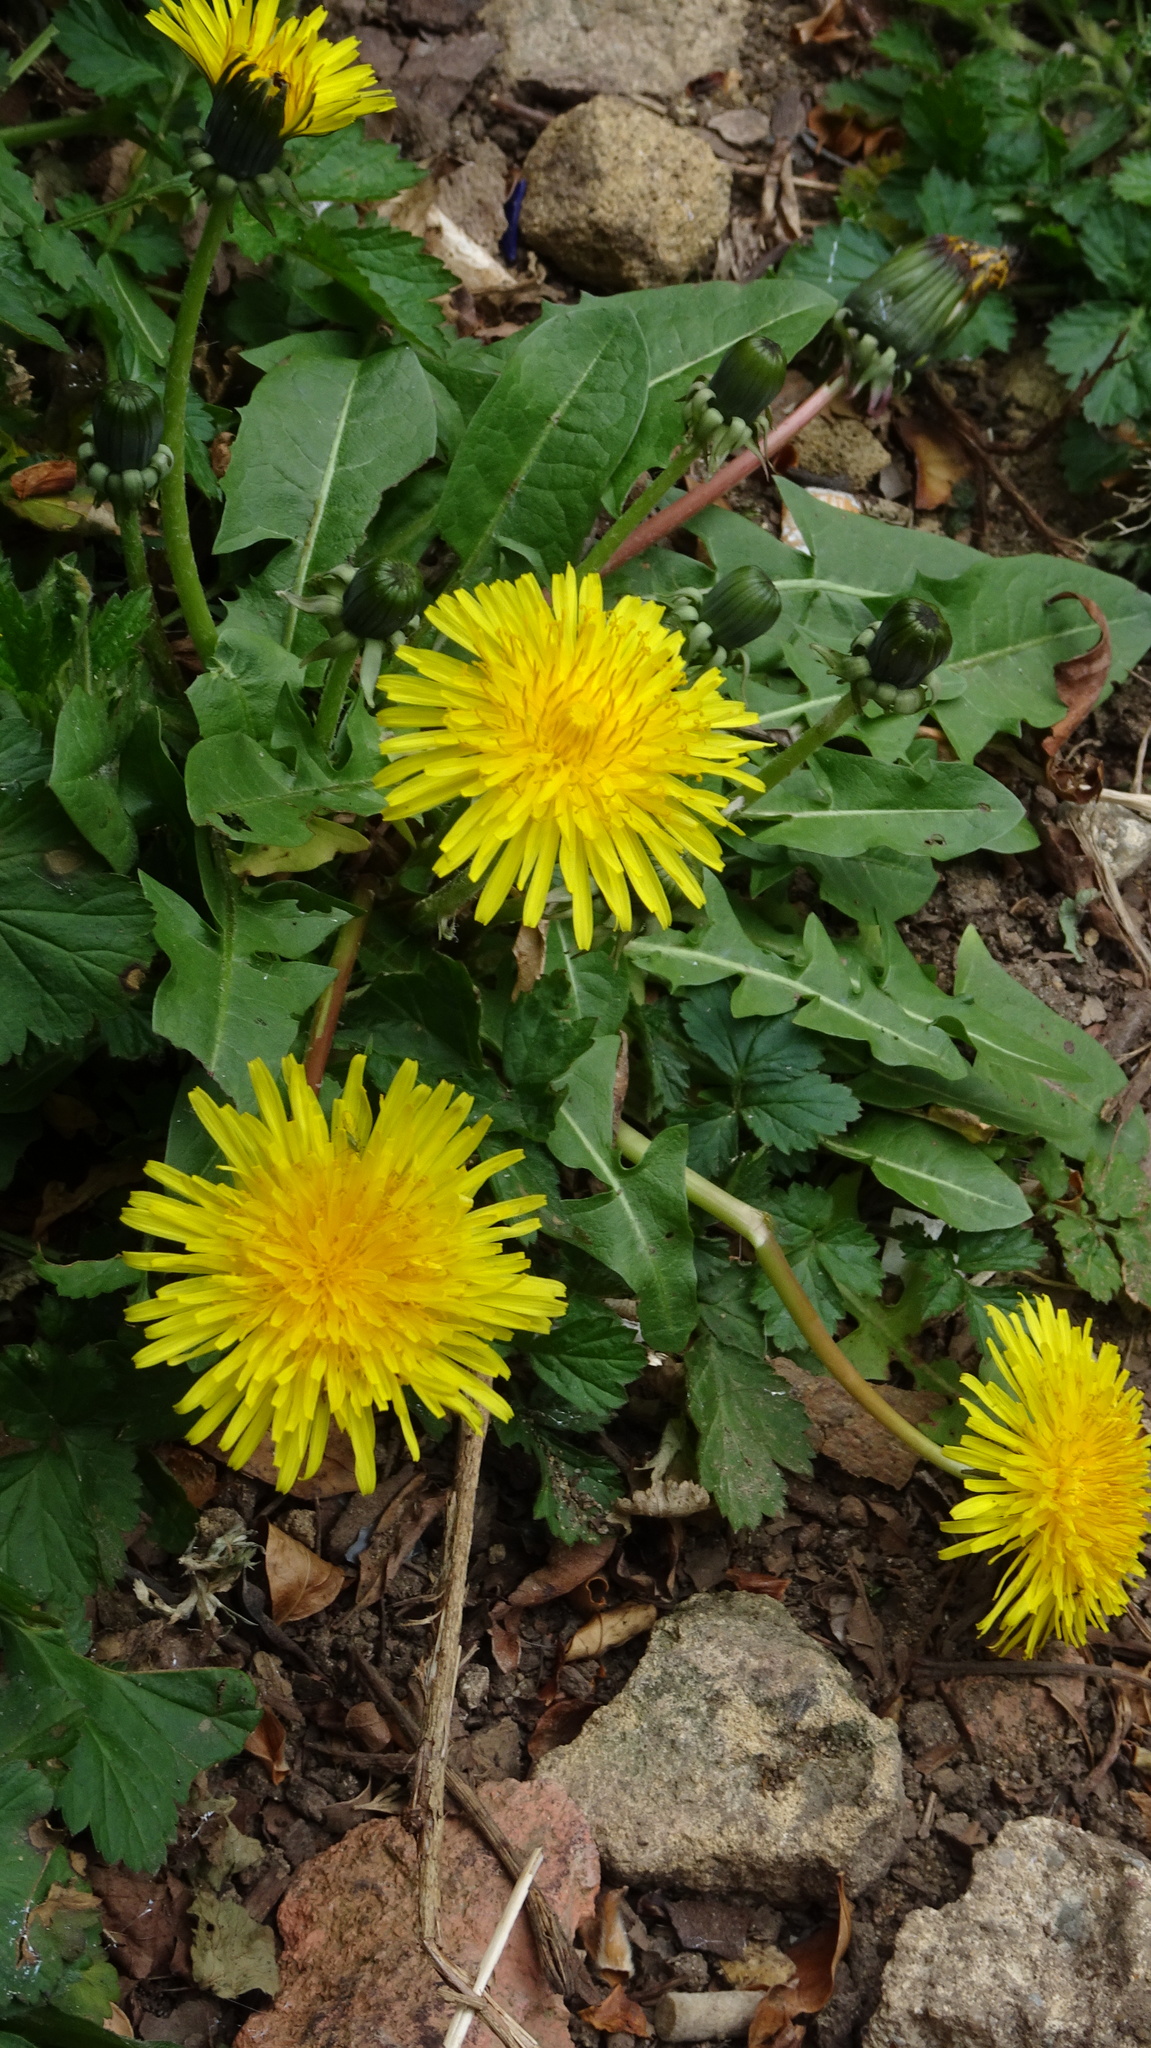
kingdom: Plantae
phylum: Tracheophyta
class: Magnoliopsida
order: Asterales
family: Asteraceae
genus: Taraxacum
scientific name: Taraxacum officinale
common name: Common dandelion
